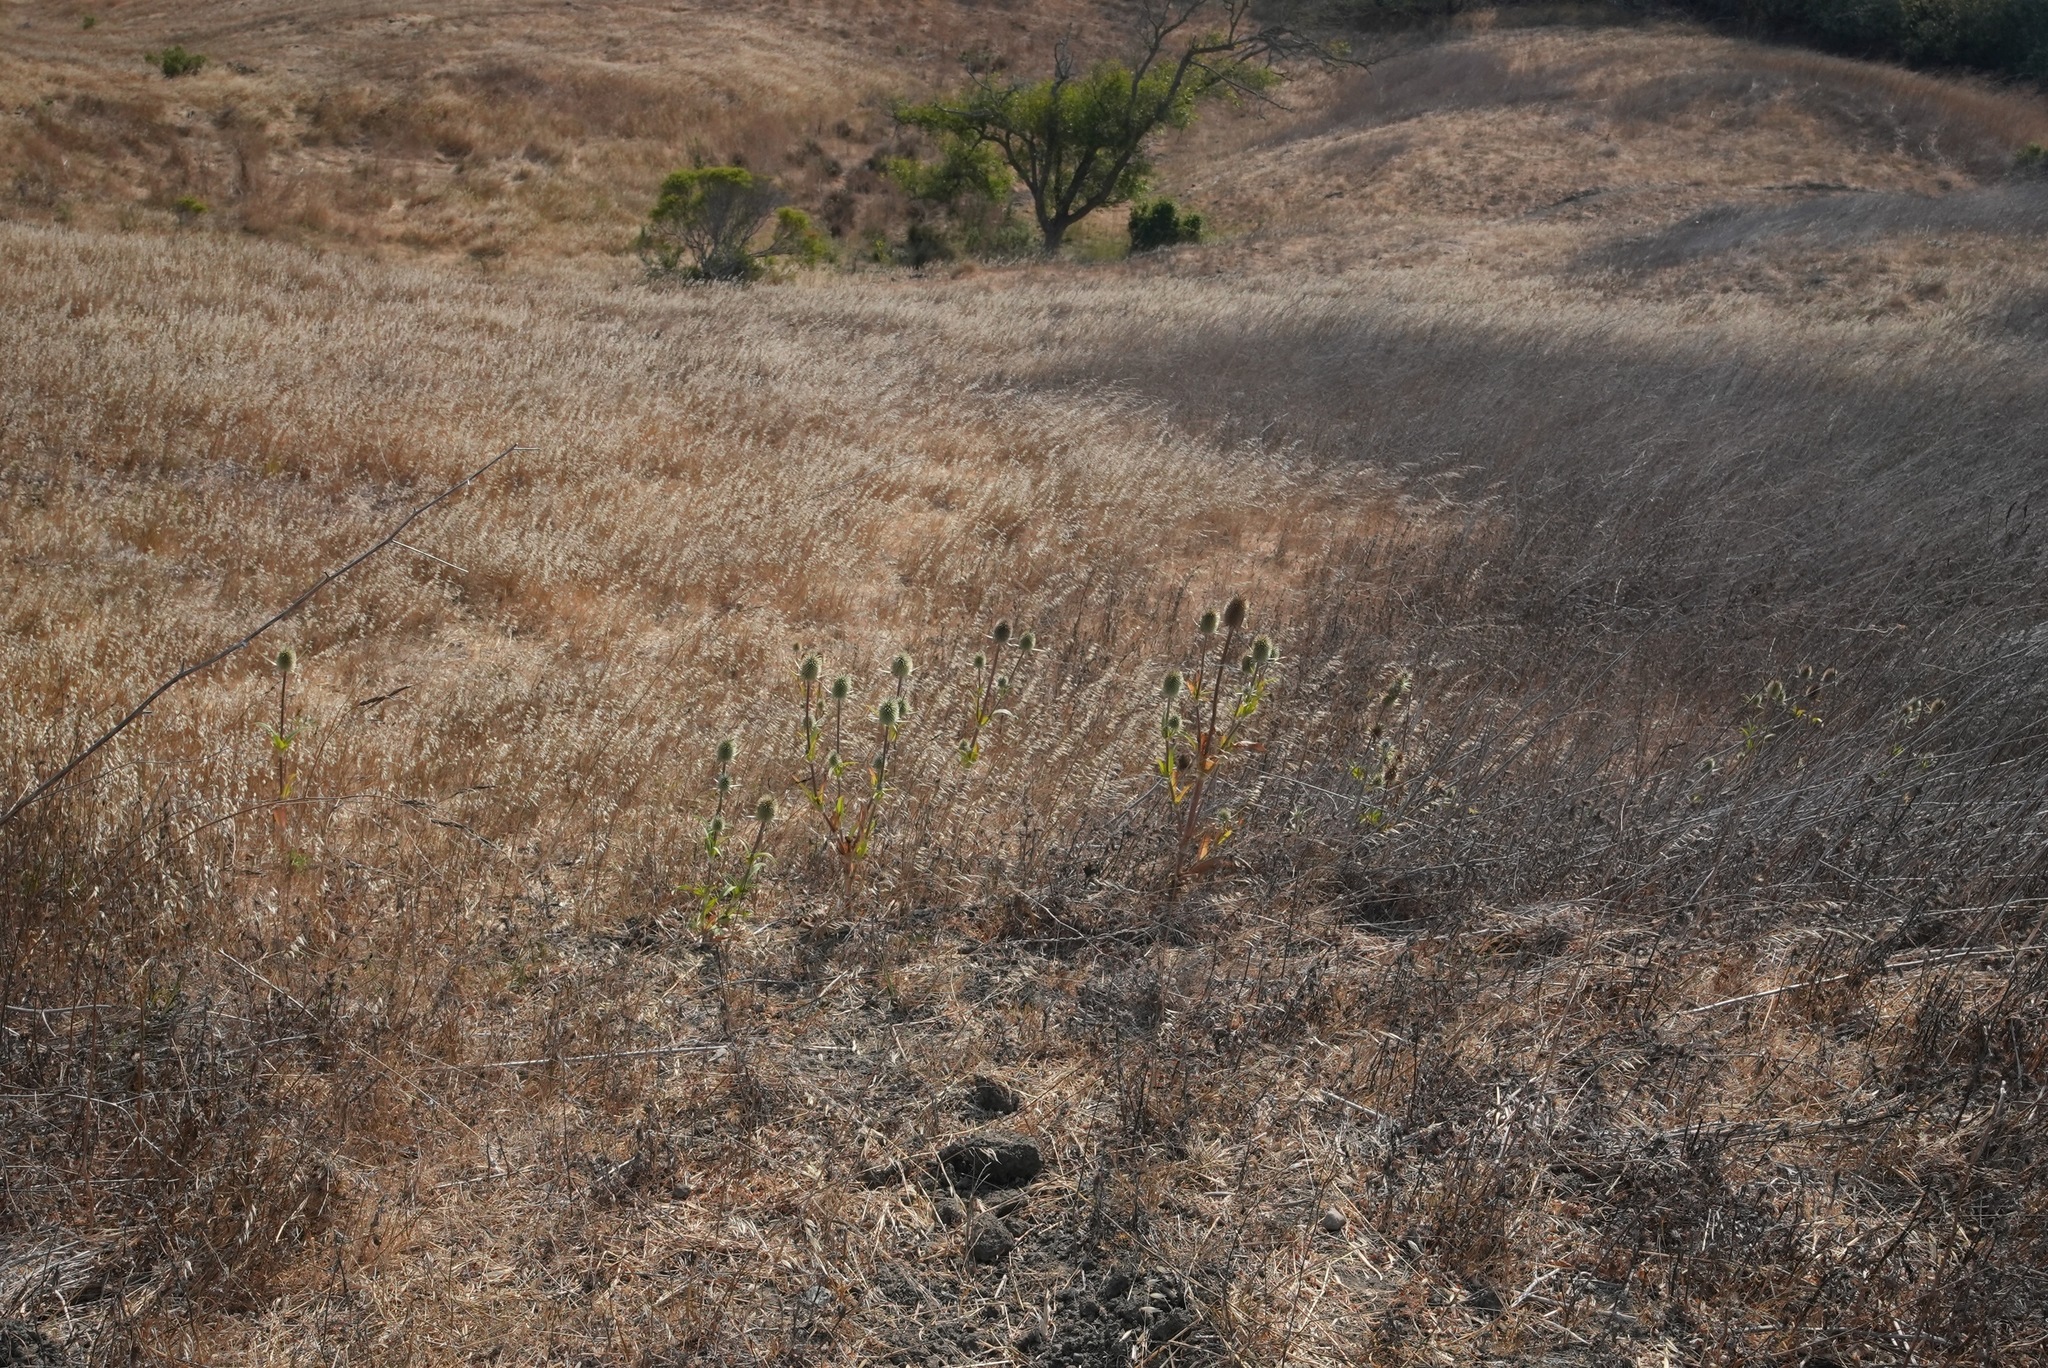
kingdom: Plantae
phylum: Tracheophyta
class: Magnoliopsida
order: Dipsacales
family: Caprifoliaceae
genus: Dipsacus
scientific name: Dipsacus sativus
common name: Fuller's teasel
